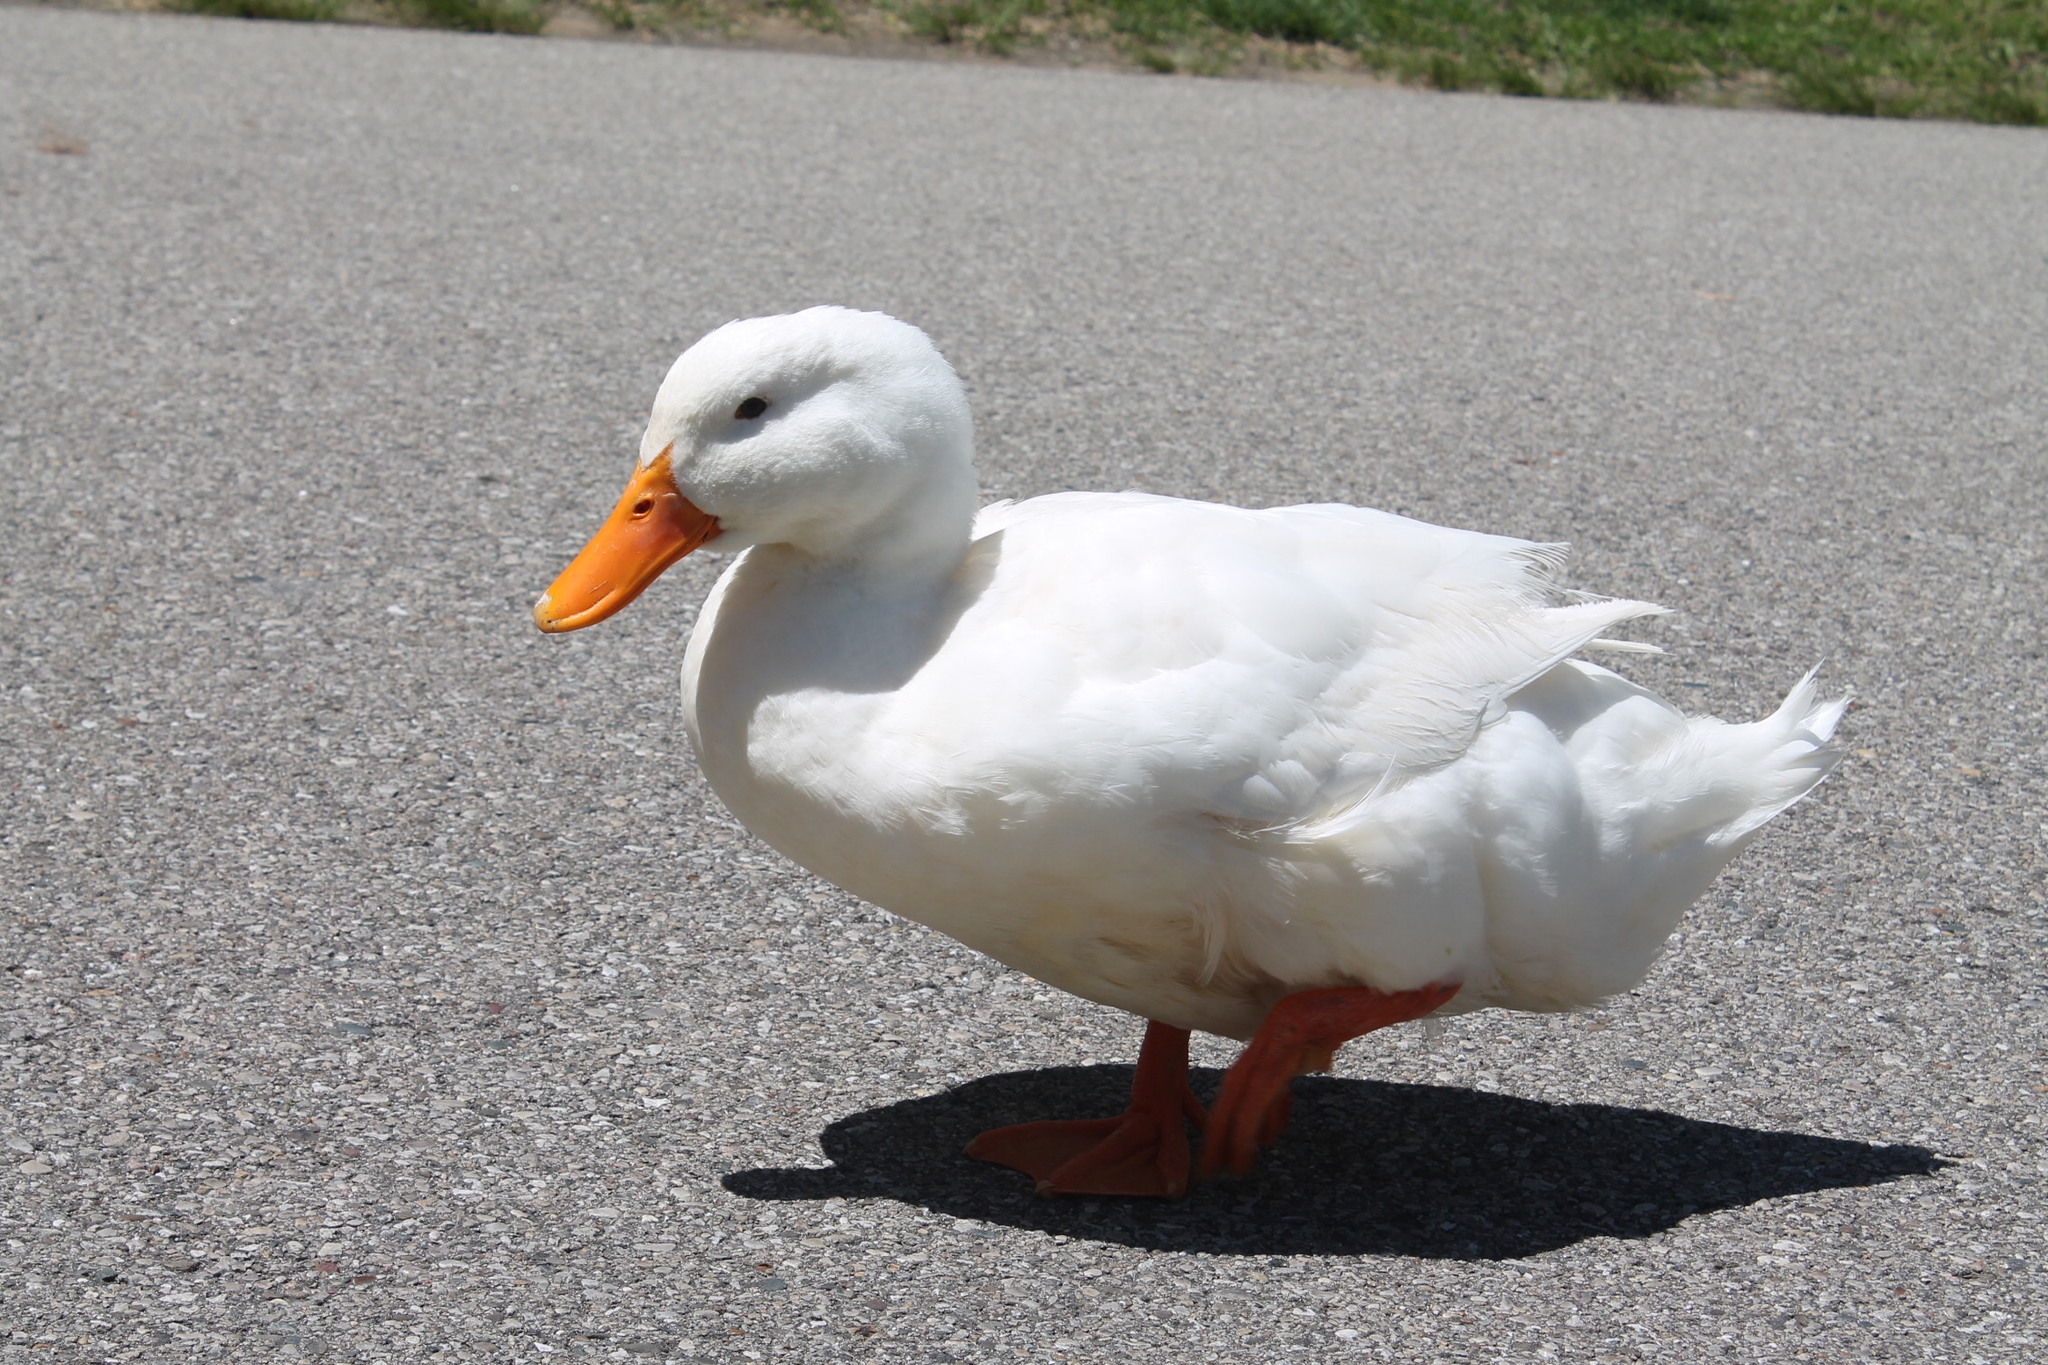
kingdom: Animalia
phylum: Chordata
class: Aves
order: Anseriformes
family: Anatidae
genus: Anas
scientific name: Anas platyrhynchos
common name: Mallard
